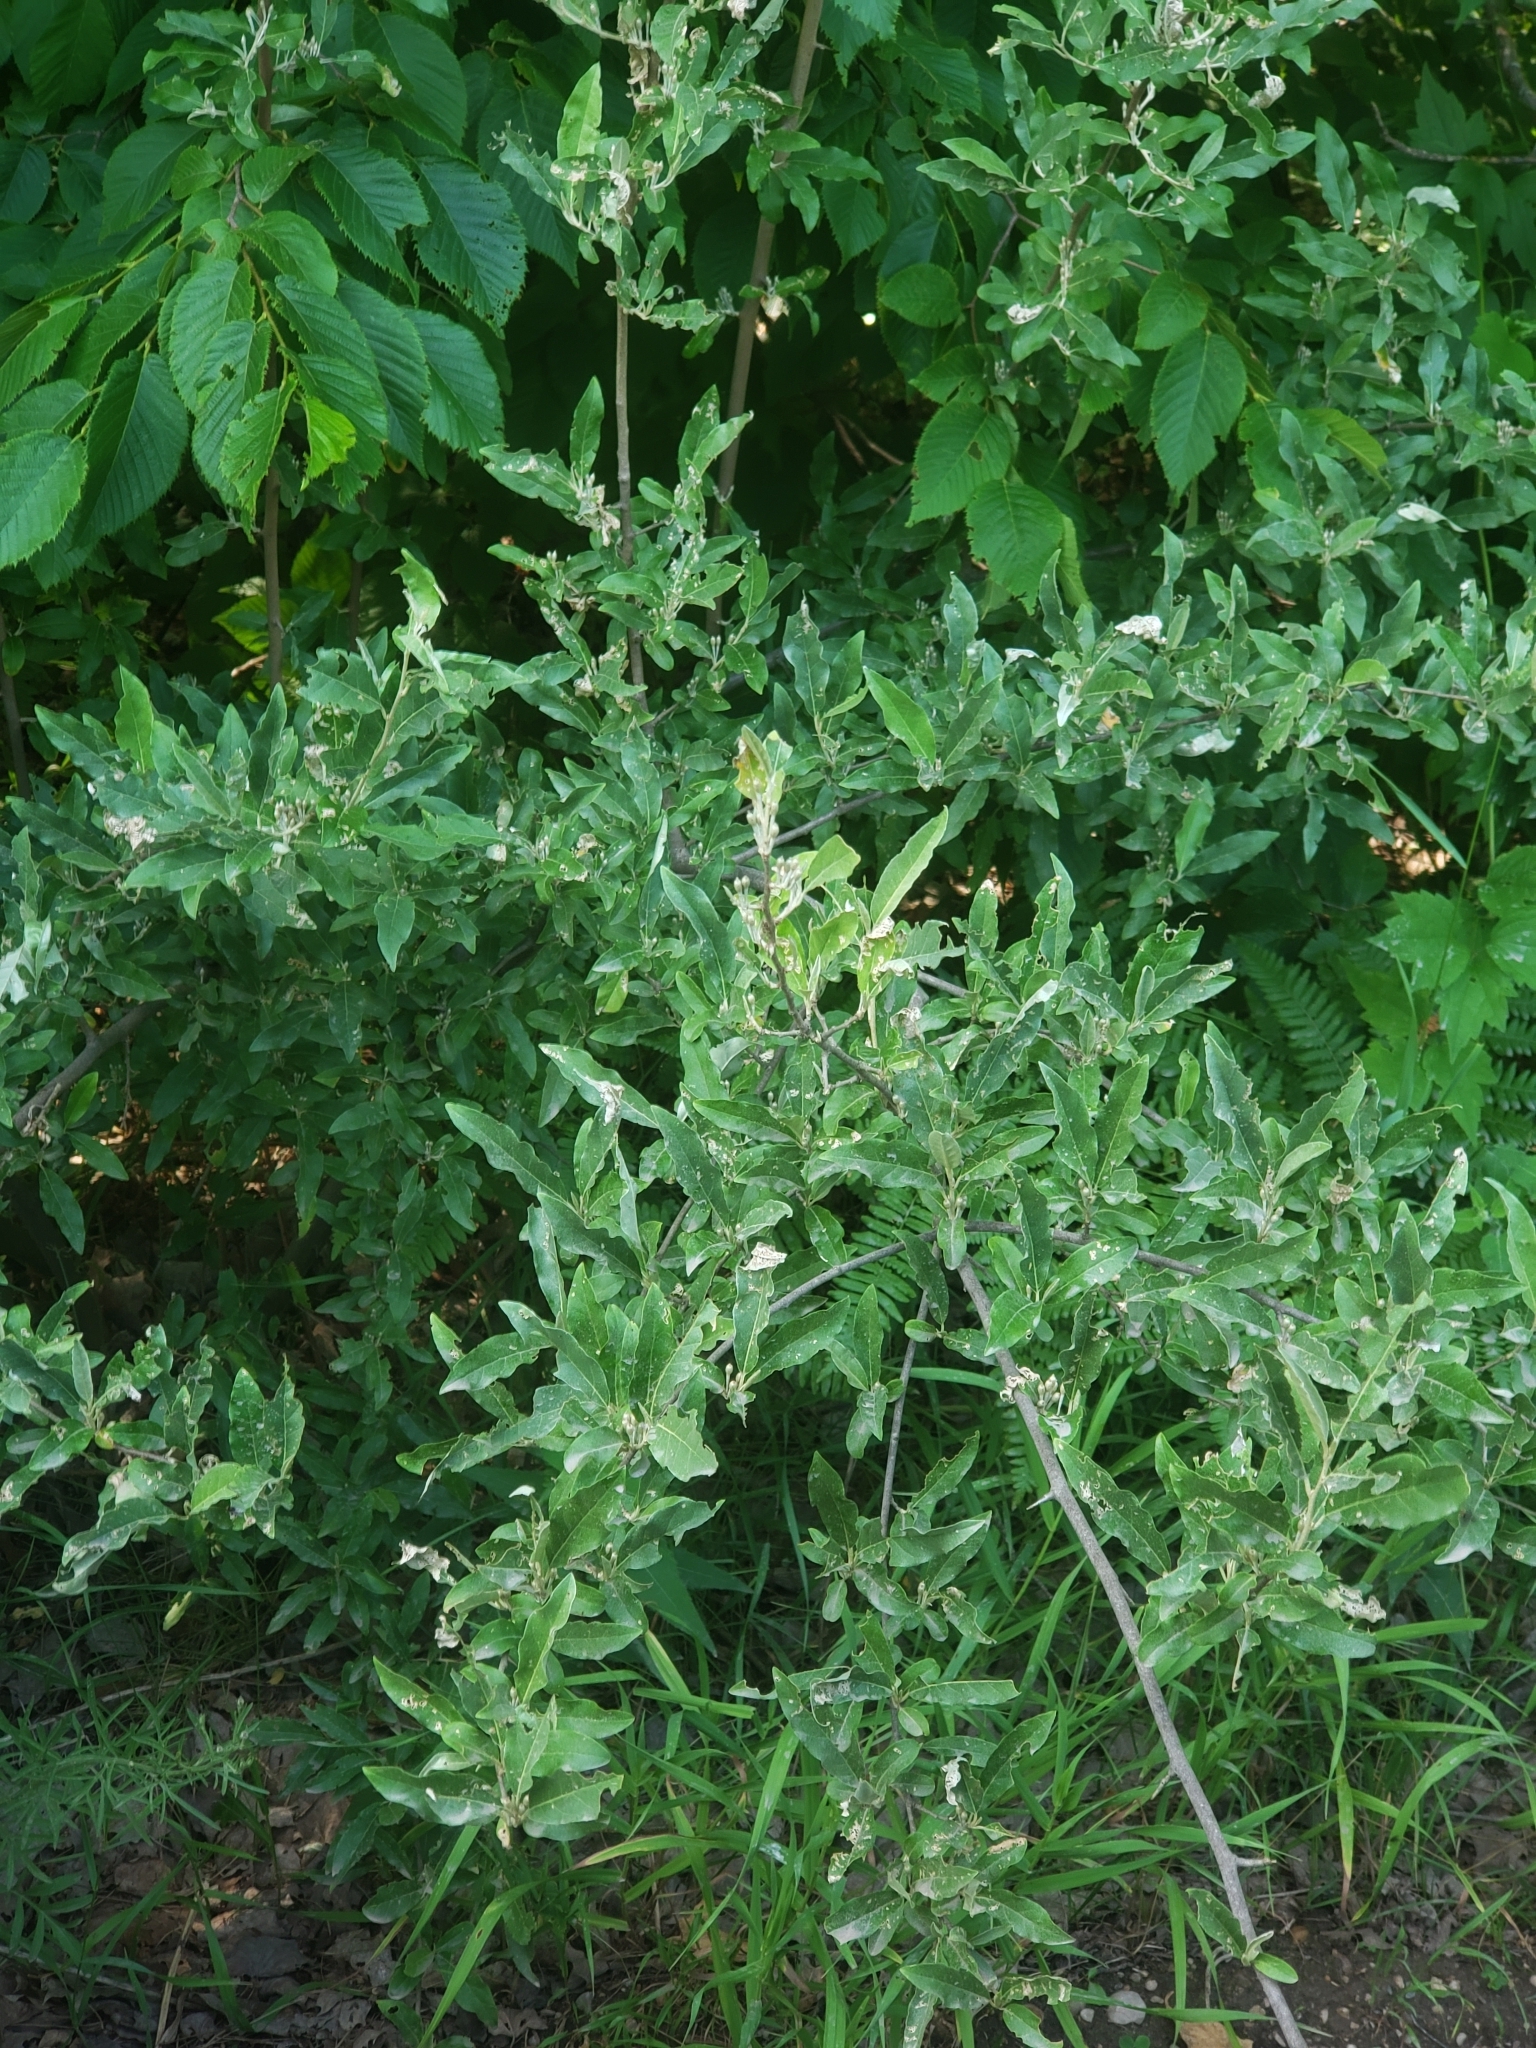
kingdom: Plantae
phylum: Tracheophyta
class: Magnoliopsida
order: Rosales
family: Elaeagnaceae
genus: Elaeagnus
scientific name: Elaeagnus umbellata
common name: Autumn olive
